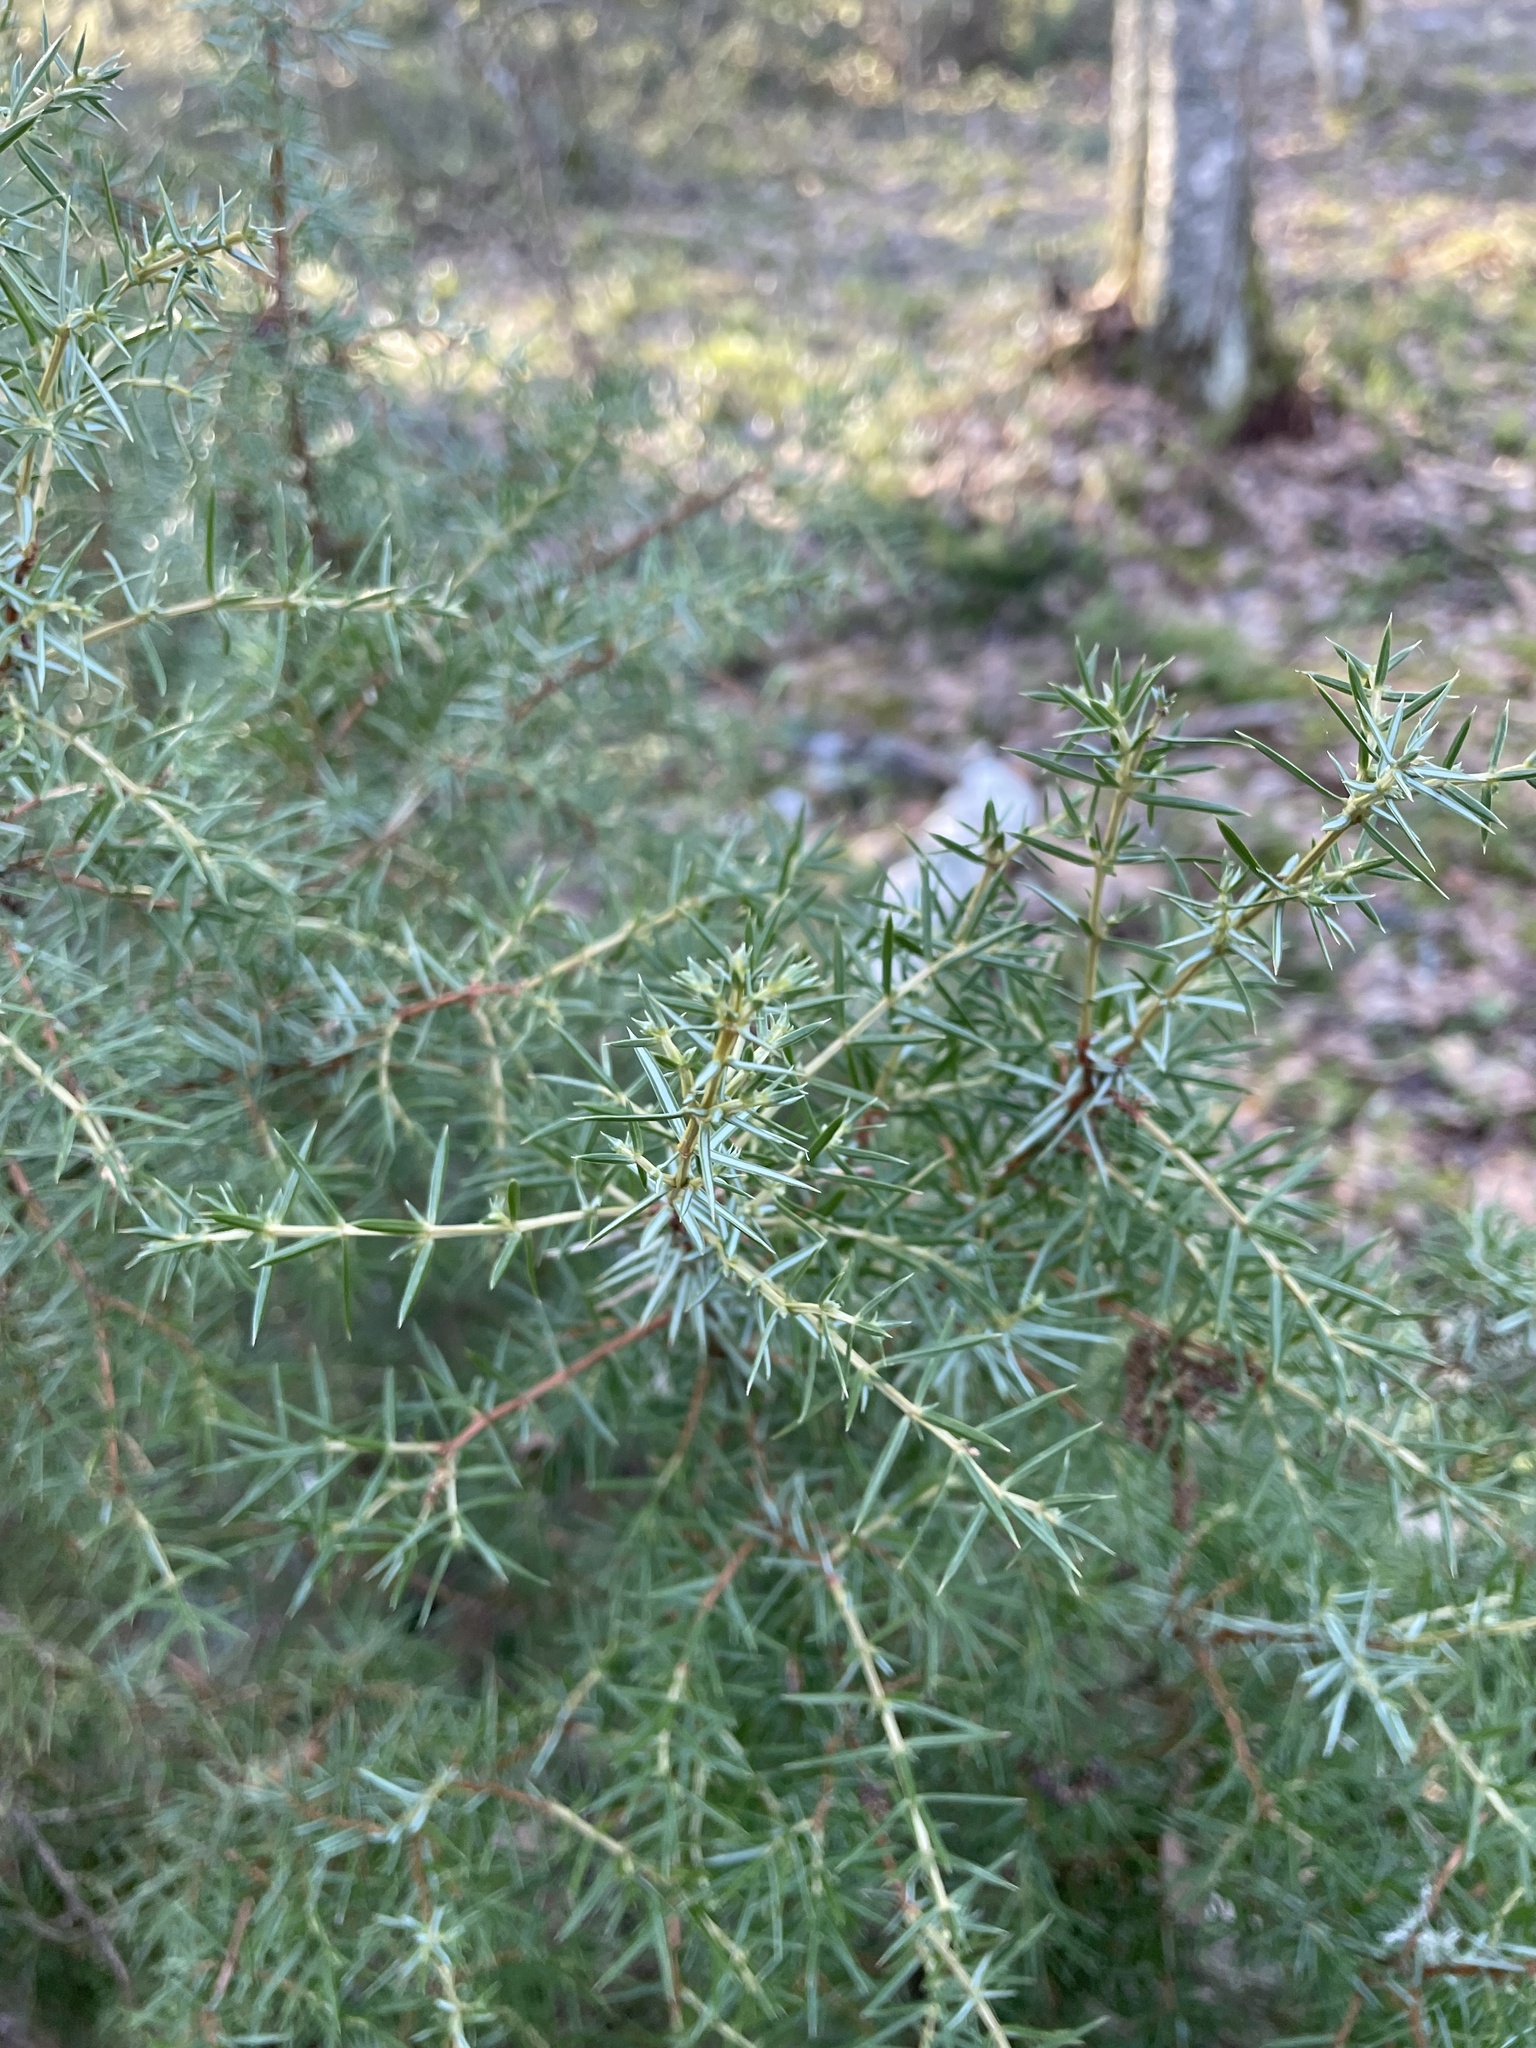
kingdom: Plantae
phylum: Tracheophyta
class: Pinopsida
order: Pinales
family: Cupressaceae
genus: Juniperus
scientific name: Juniperus communis
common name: Common juniper
